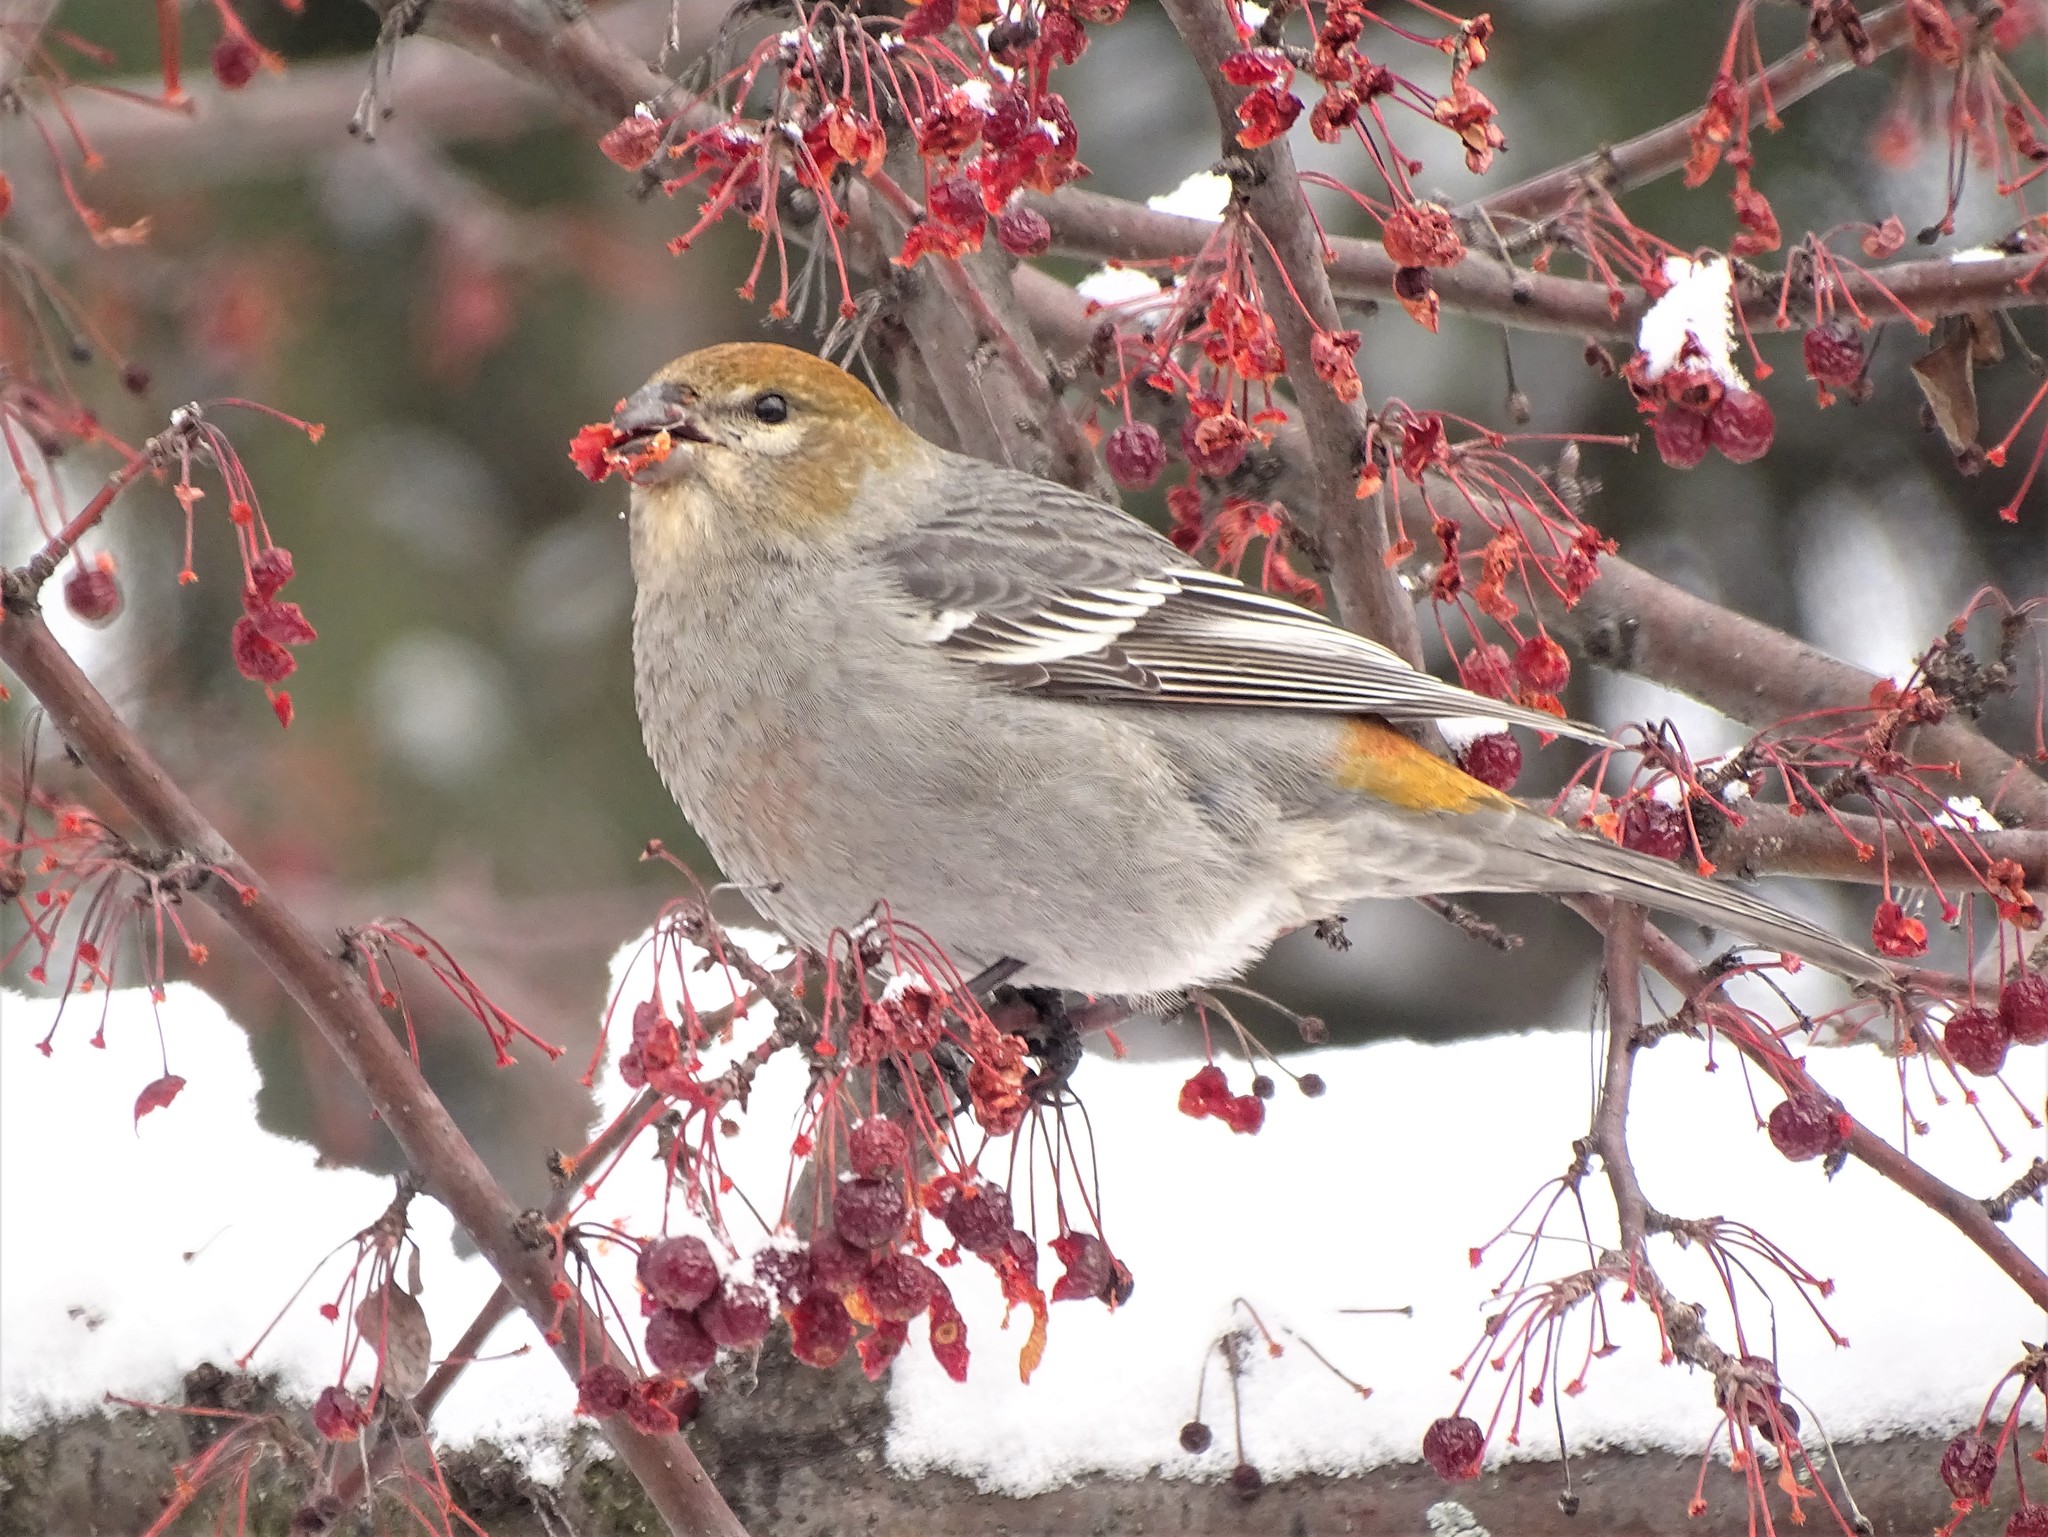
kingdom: Animalia
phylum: Chordata
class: Aves
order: Passeriformes
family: Fringillidae
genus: Pinicola
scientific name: Pinicola enucleator
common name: Pine grosbeak
